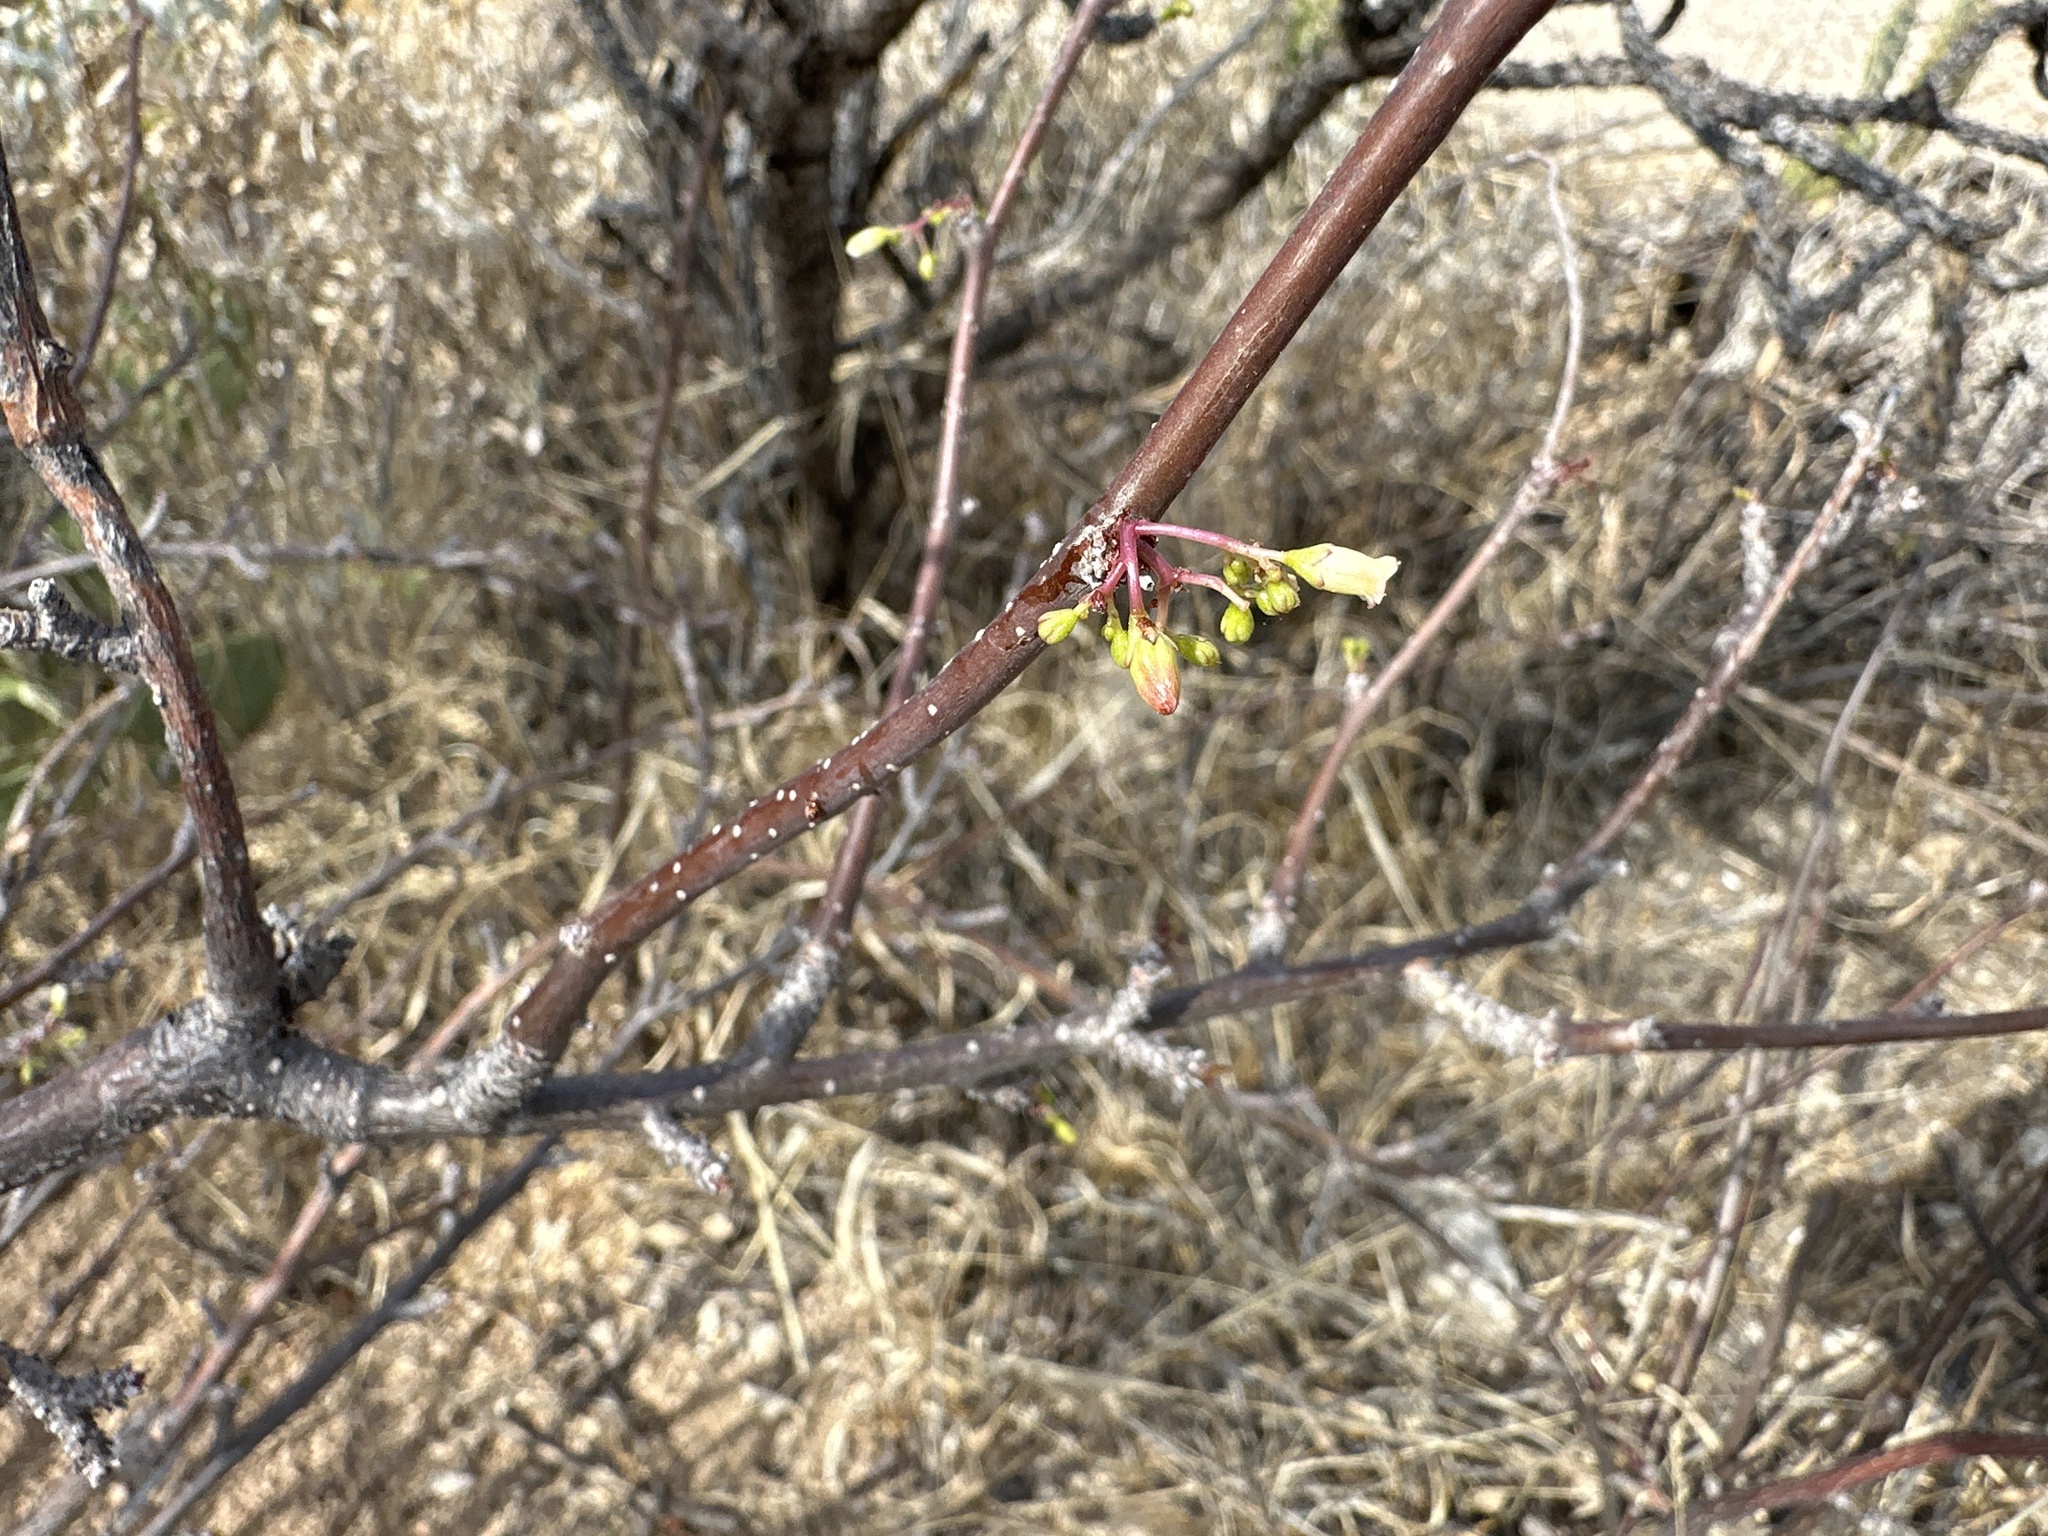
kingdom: Plantae
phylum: Tracheophyta
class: Magnoliopsida
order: Malpighiales
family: Euphorbiaceae
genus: Jatropha
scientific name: Jatropha cardiophylla
